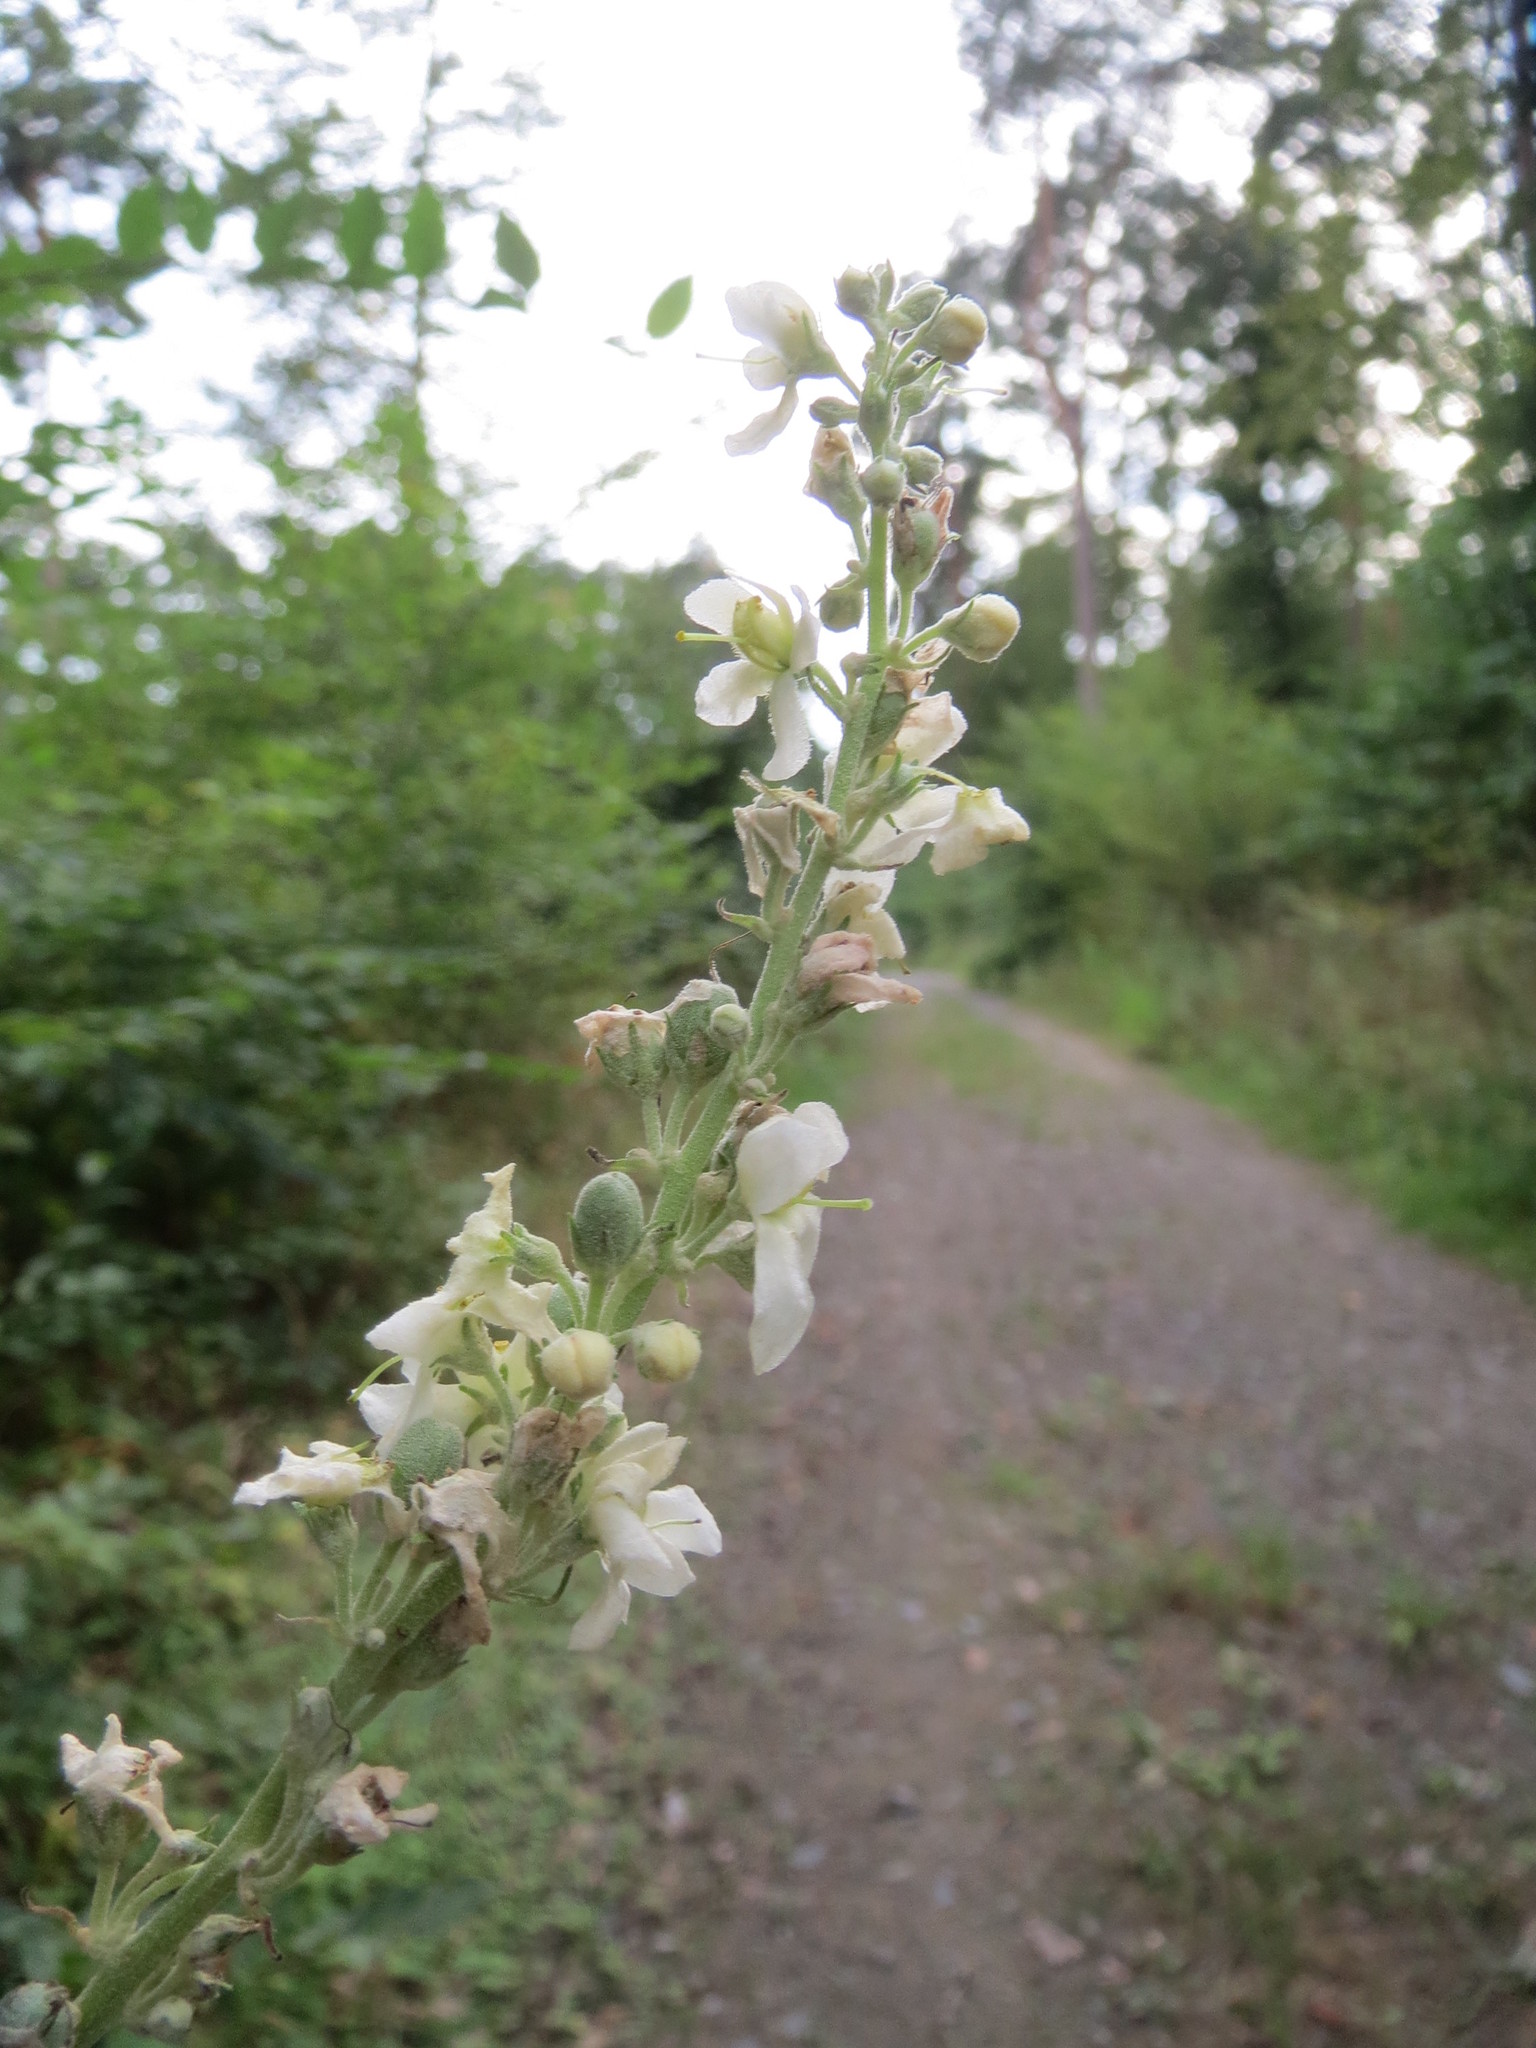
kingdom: Plantae
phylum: Tracheophyta
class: Magnoliopsida
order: Lamiales
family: Scrophulariaceae
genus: Verbascum
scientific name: Verbascum lychnitis
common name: White mullein
